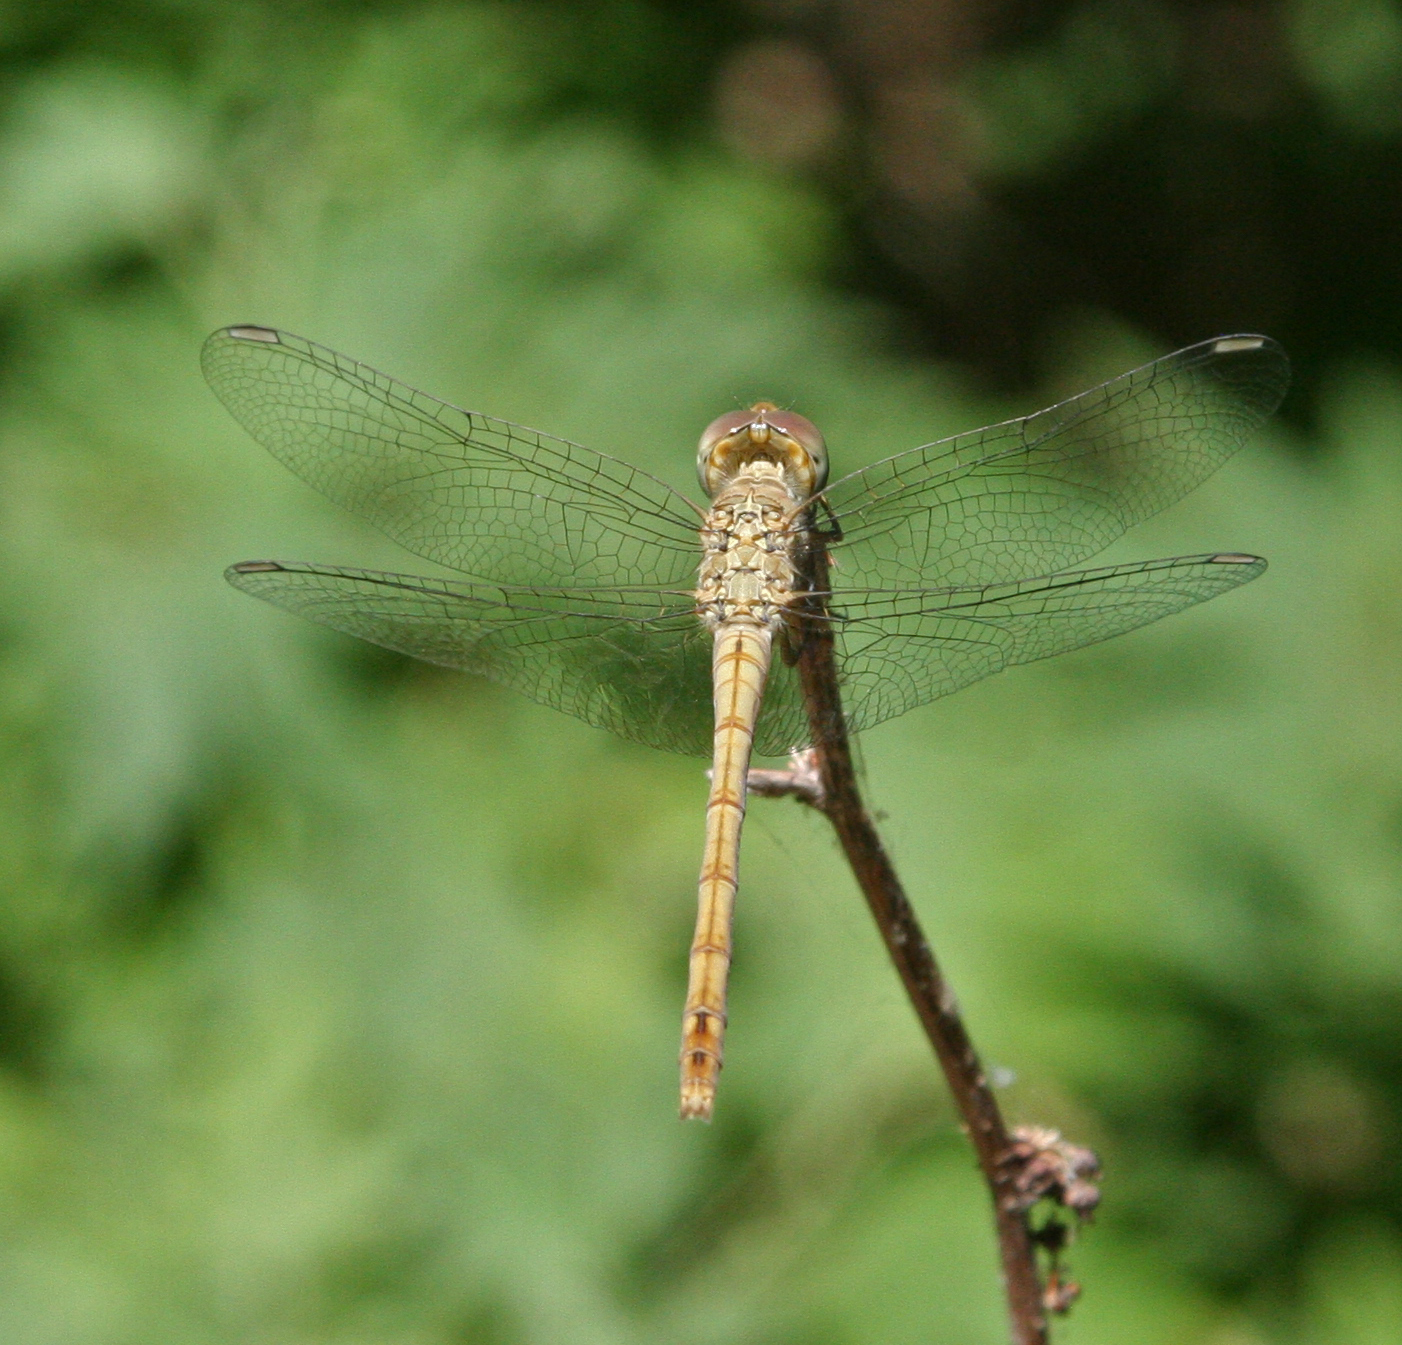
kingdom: Animalia
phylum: Arthropoda
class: Insecta
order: Odonata
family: Libellulidae
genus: Sympetrum
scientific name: Sympetrum arenicolor
